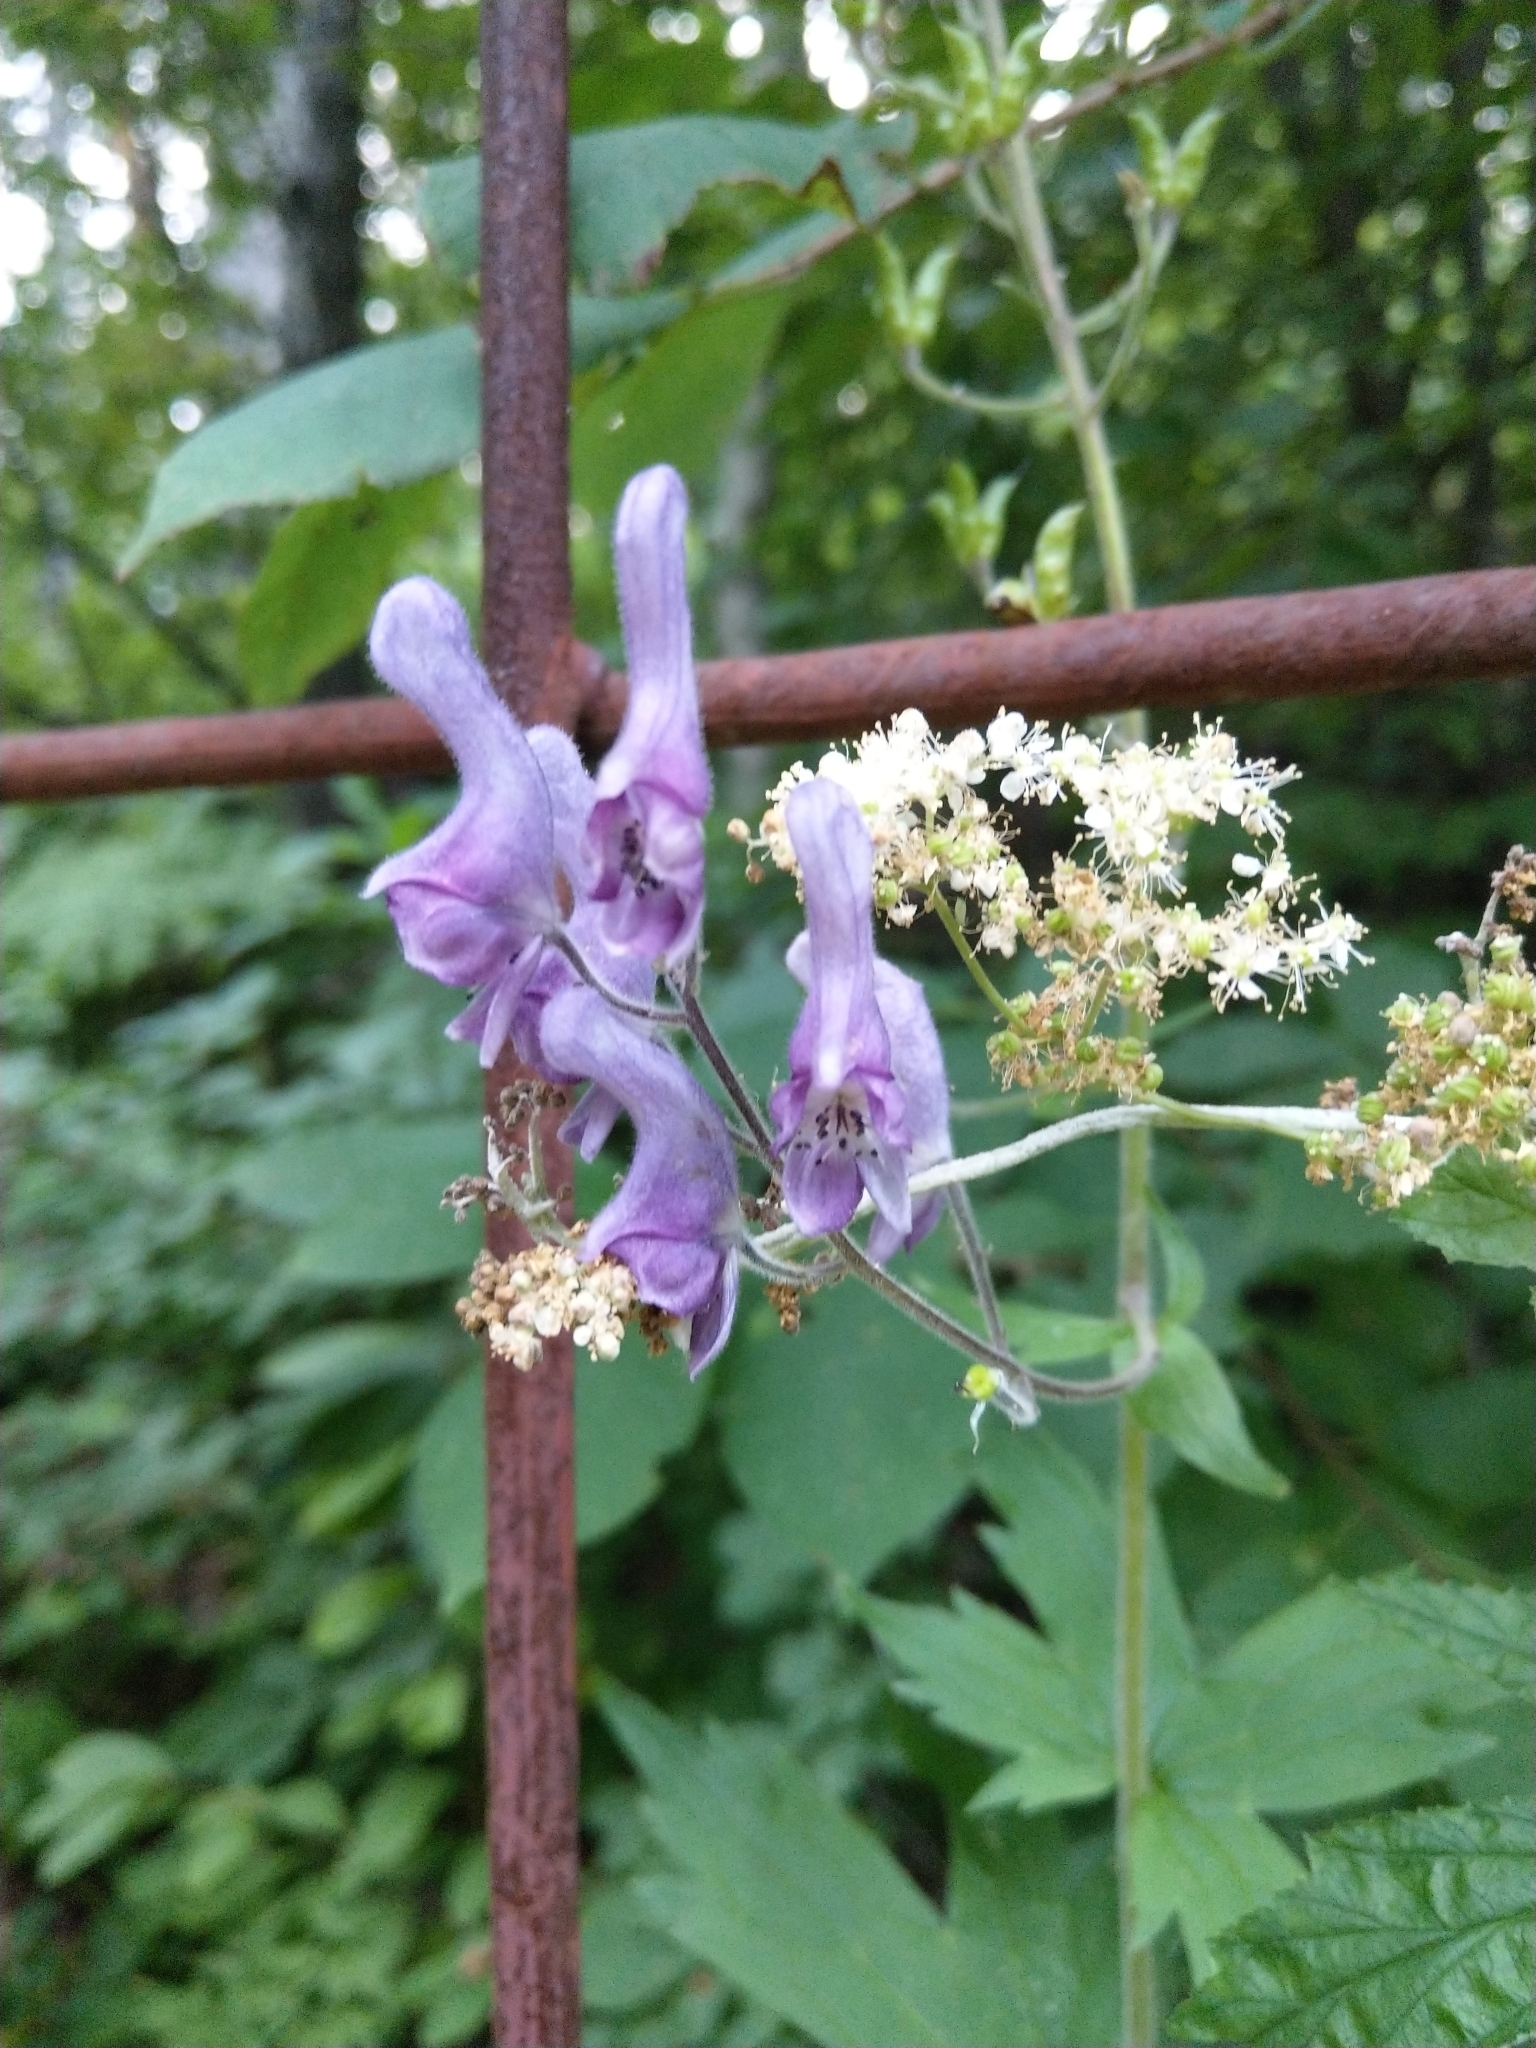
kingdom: Plantae
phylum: Tracheophyta
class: Magnoliopsida
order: Ranunculales
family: Ranunculaceae
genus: Aconitum
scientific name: Aconitum septentrionale
